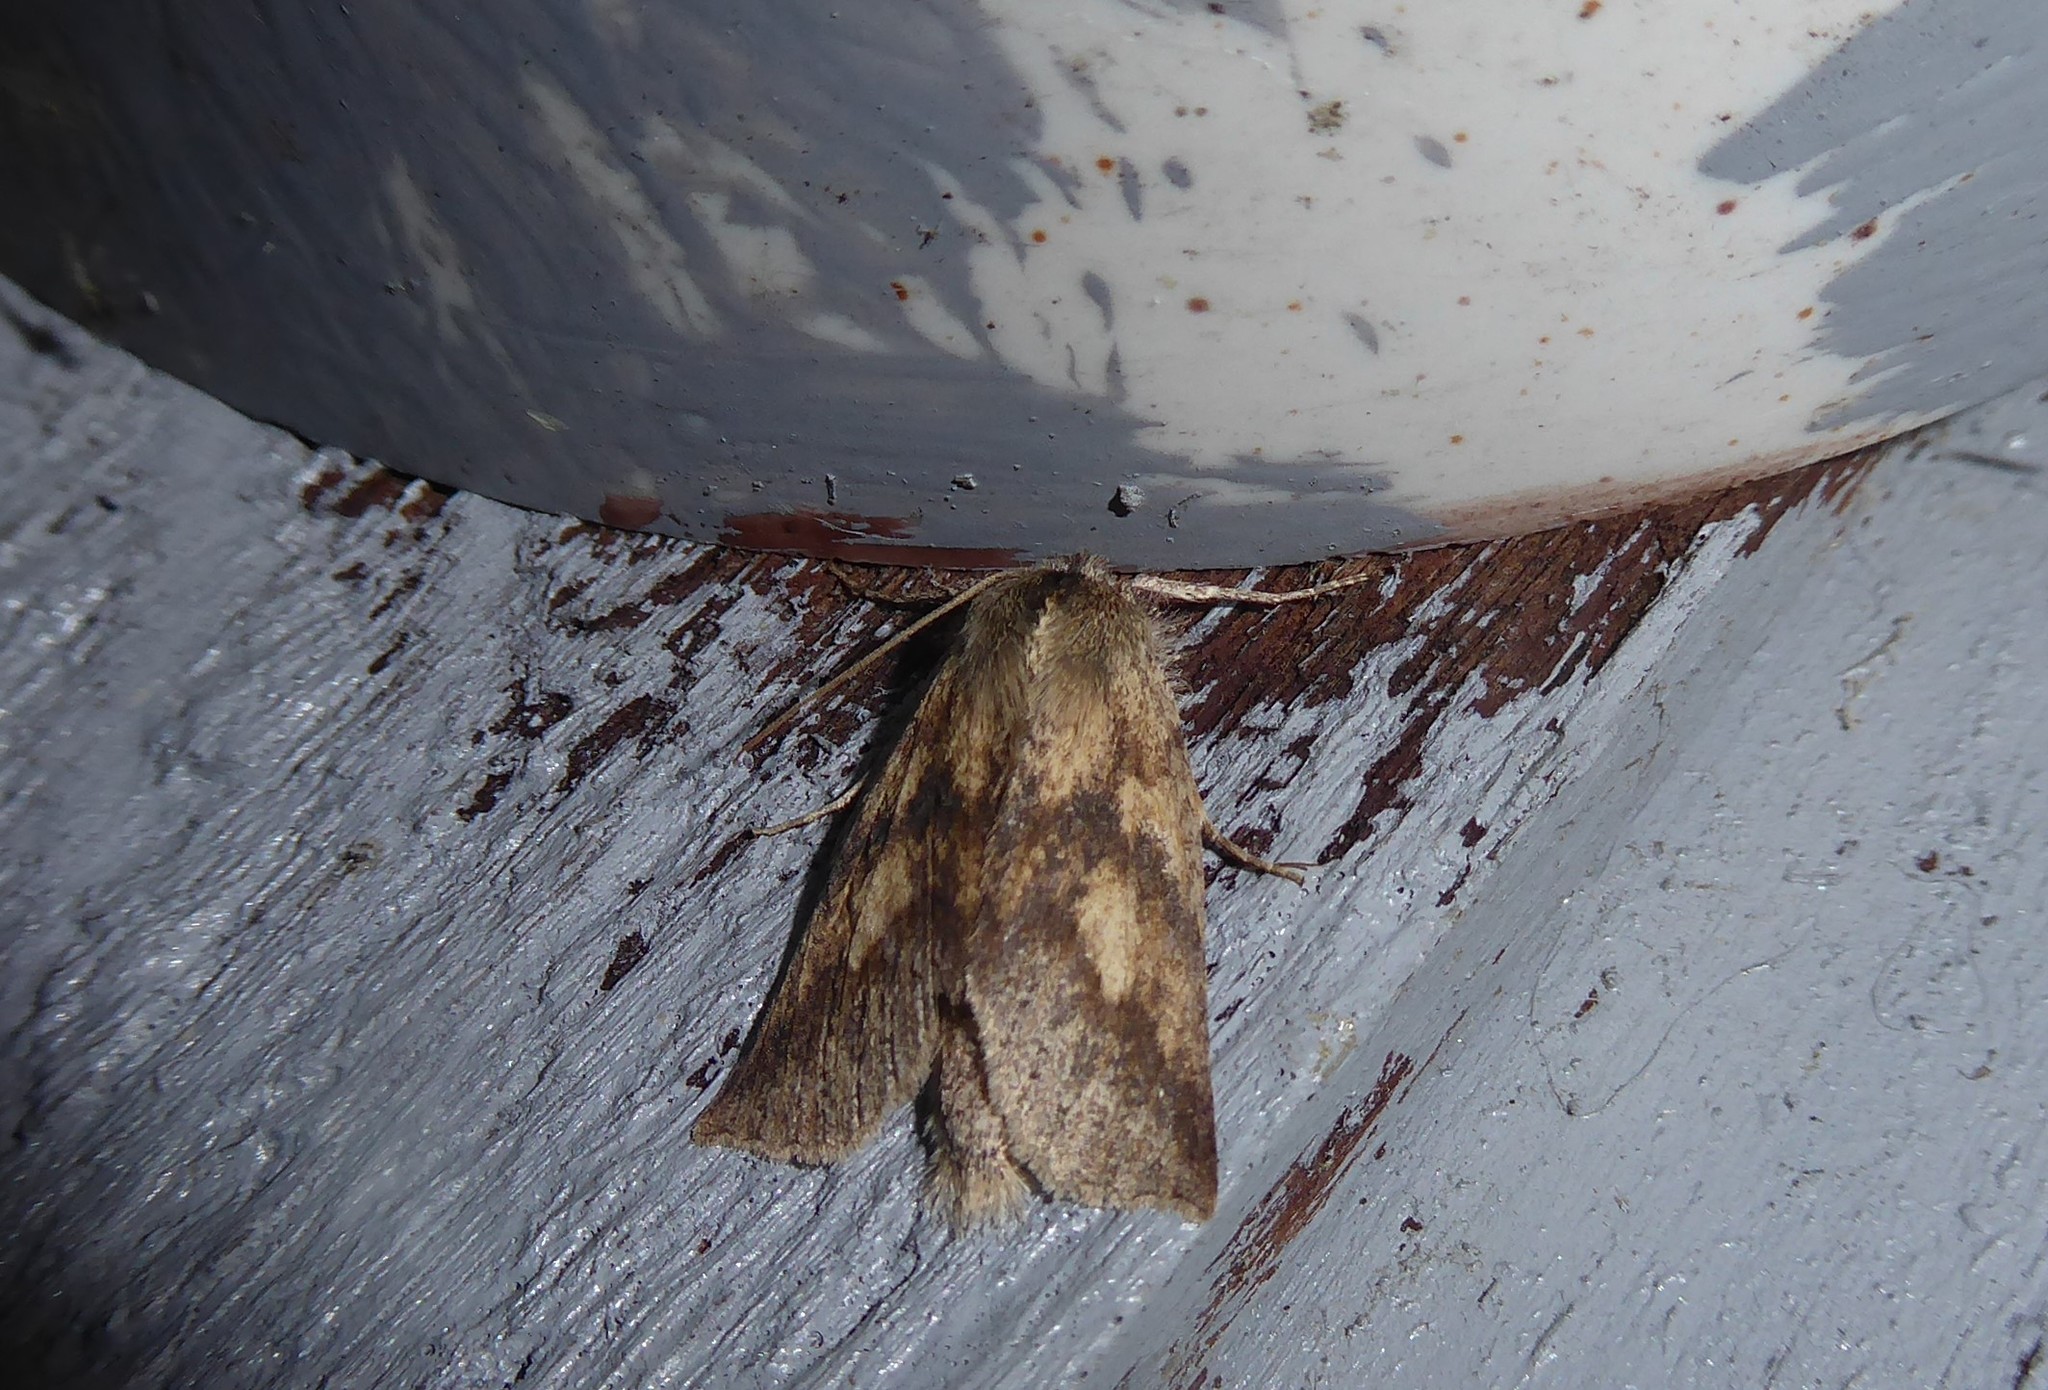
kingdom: Animalia
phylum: Arthropoda
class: Insecta
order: Lepidoptera
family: Geometridae
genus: Declana
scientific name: Declana leptomera
